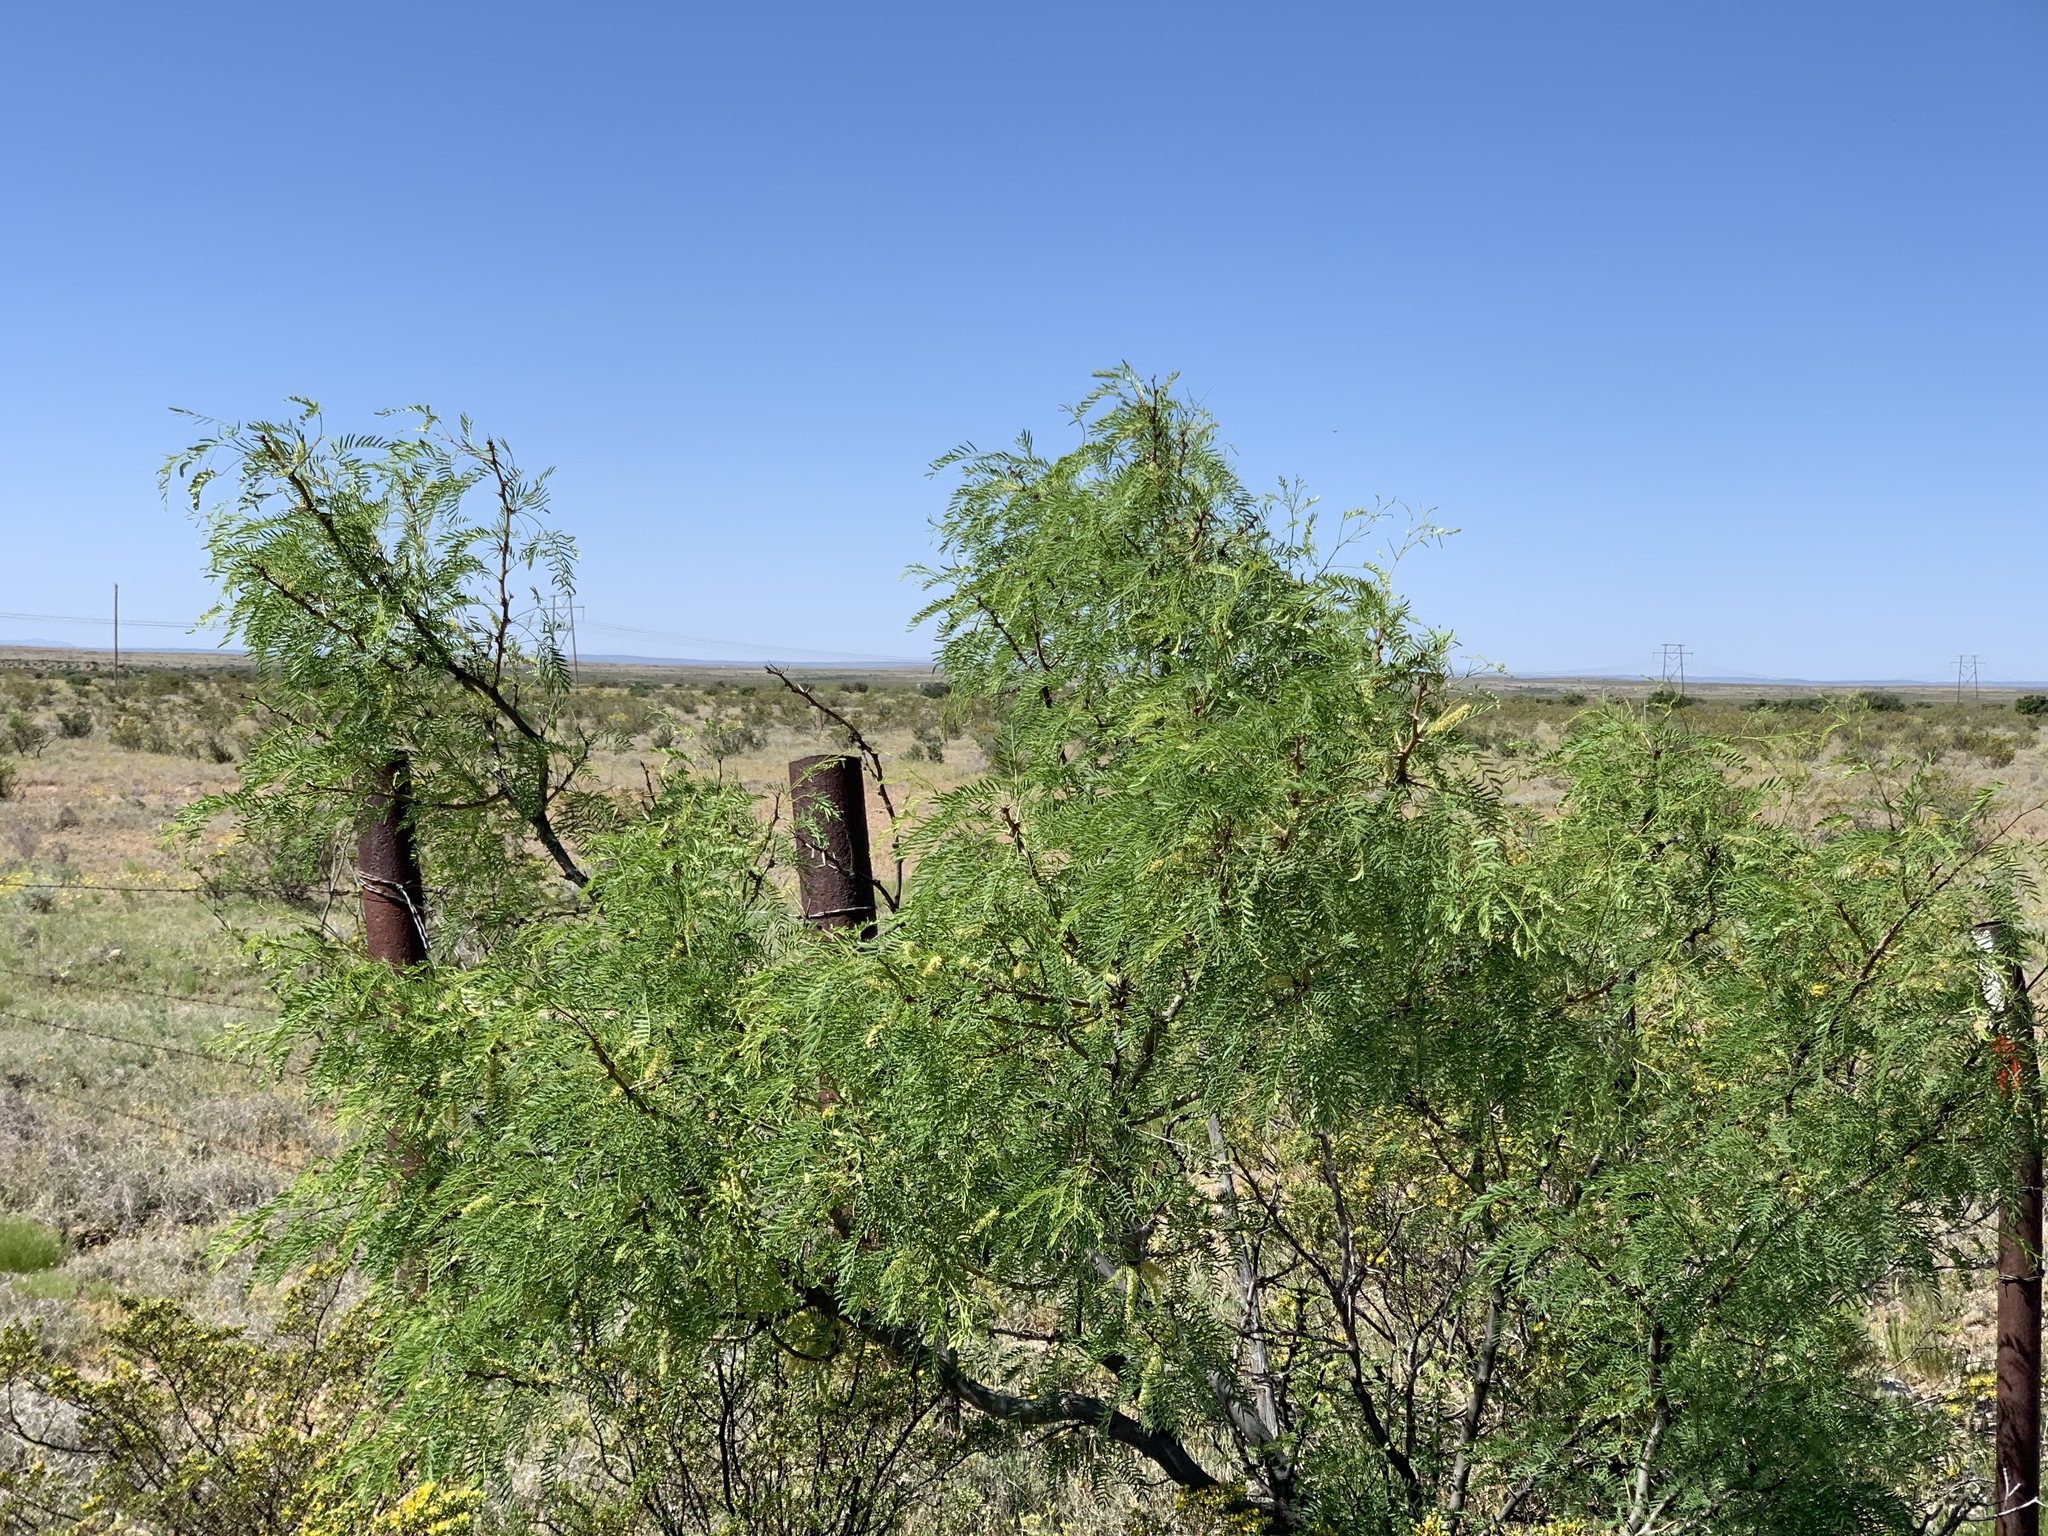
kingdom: Plantae
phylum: Tracheophyta
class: Magnoliopsida
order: Fabales
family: Fabaceae
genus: Prosopis
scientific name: Prosopis glandulosa
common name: Honey mesquite
